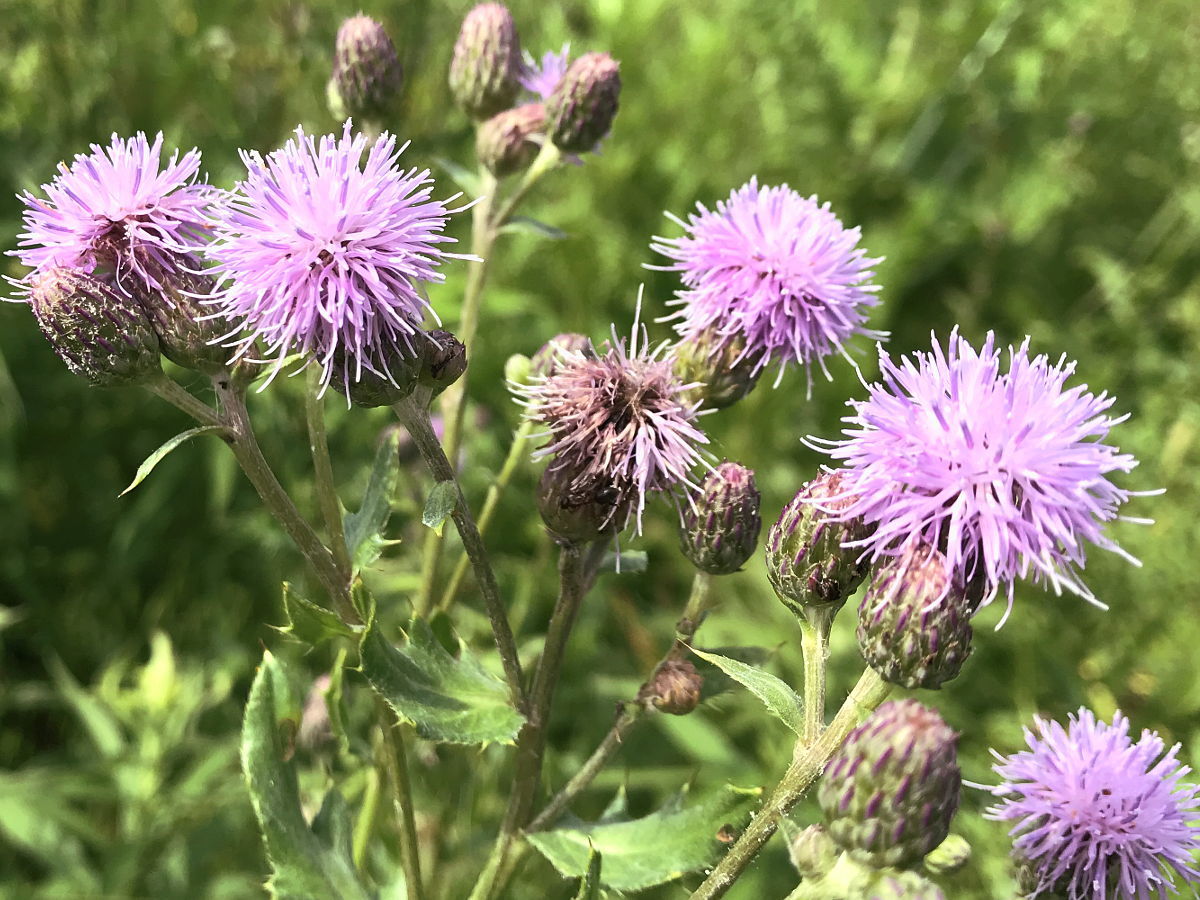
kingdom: Plantae
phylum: Tracheophyta
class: Magnoliopsida
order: Asterales
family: Asteraceae
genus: Cirsium
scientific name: Cirsium arvense
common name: Creeping thistle
